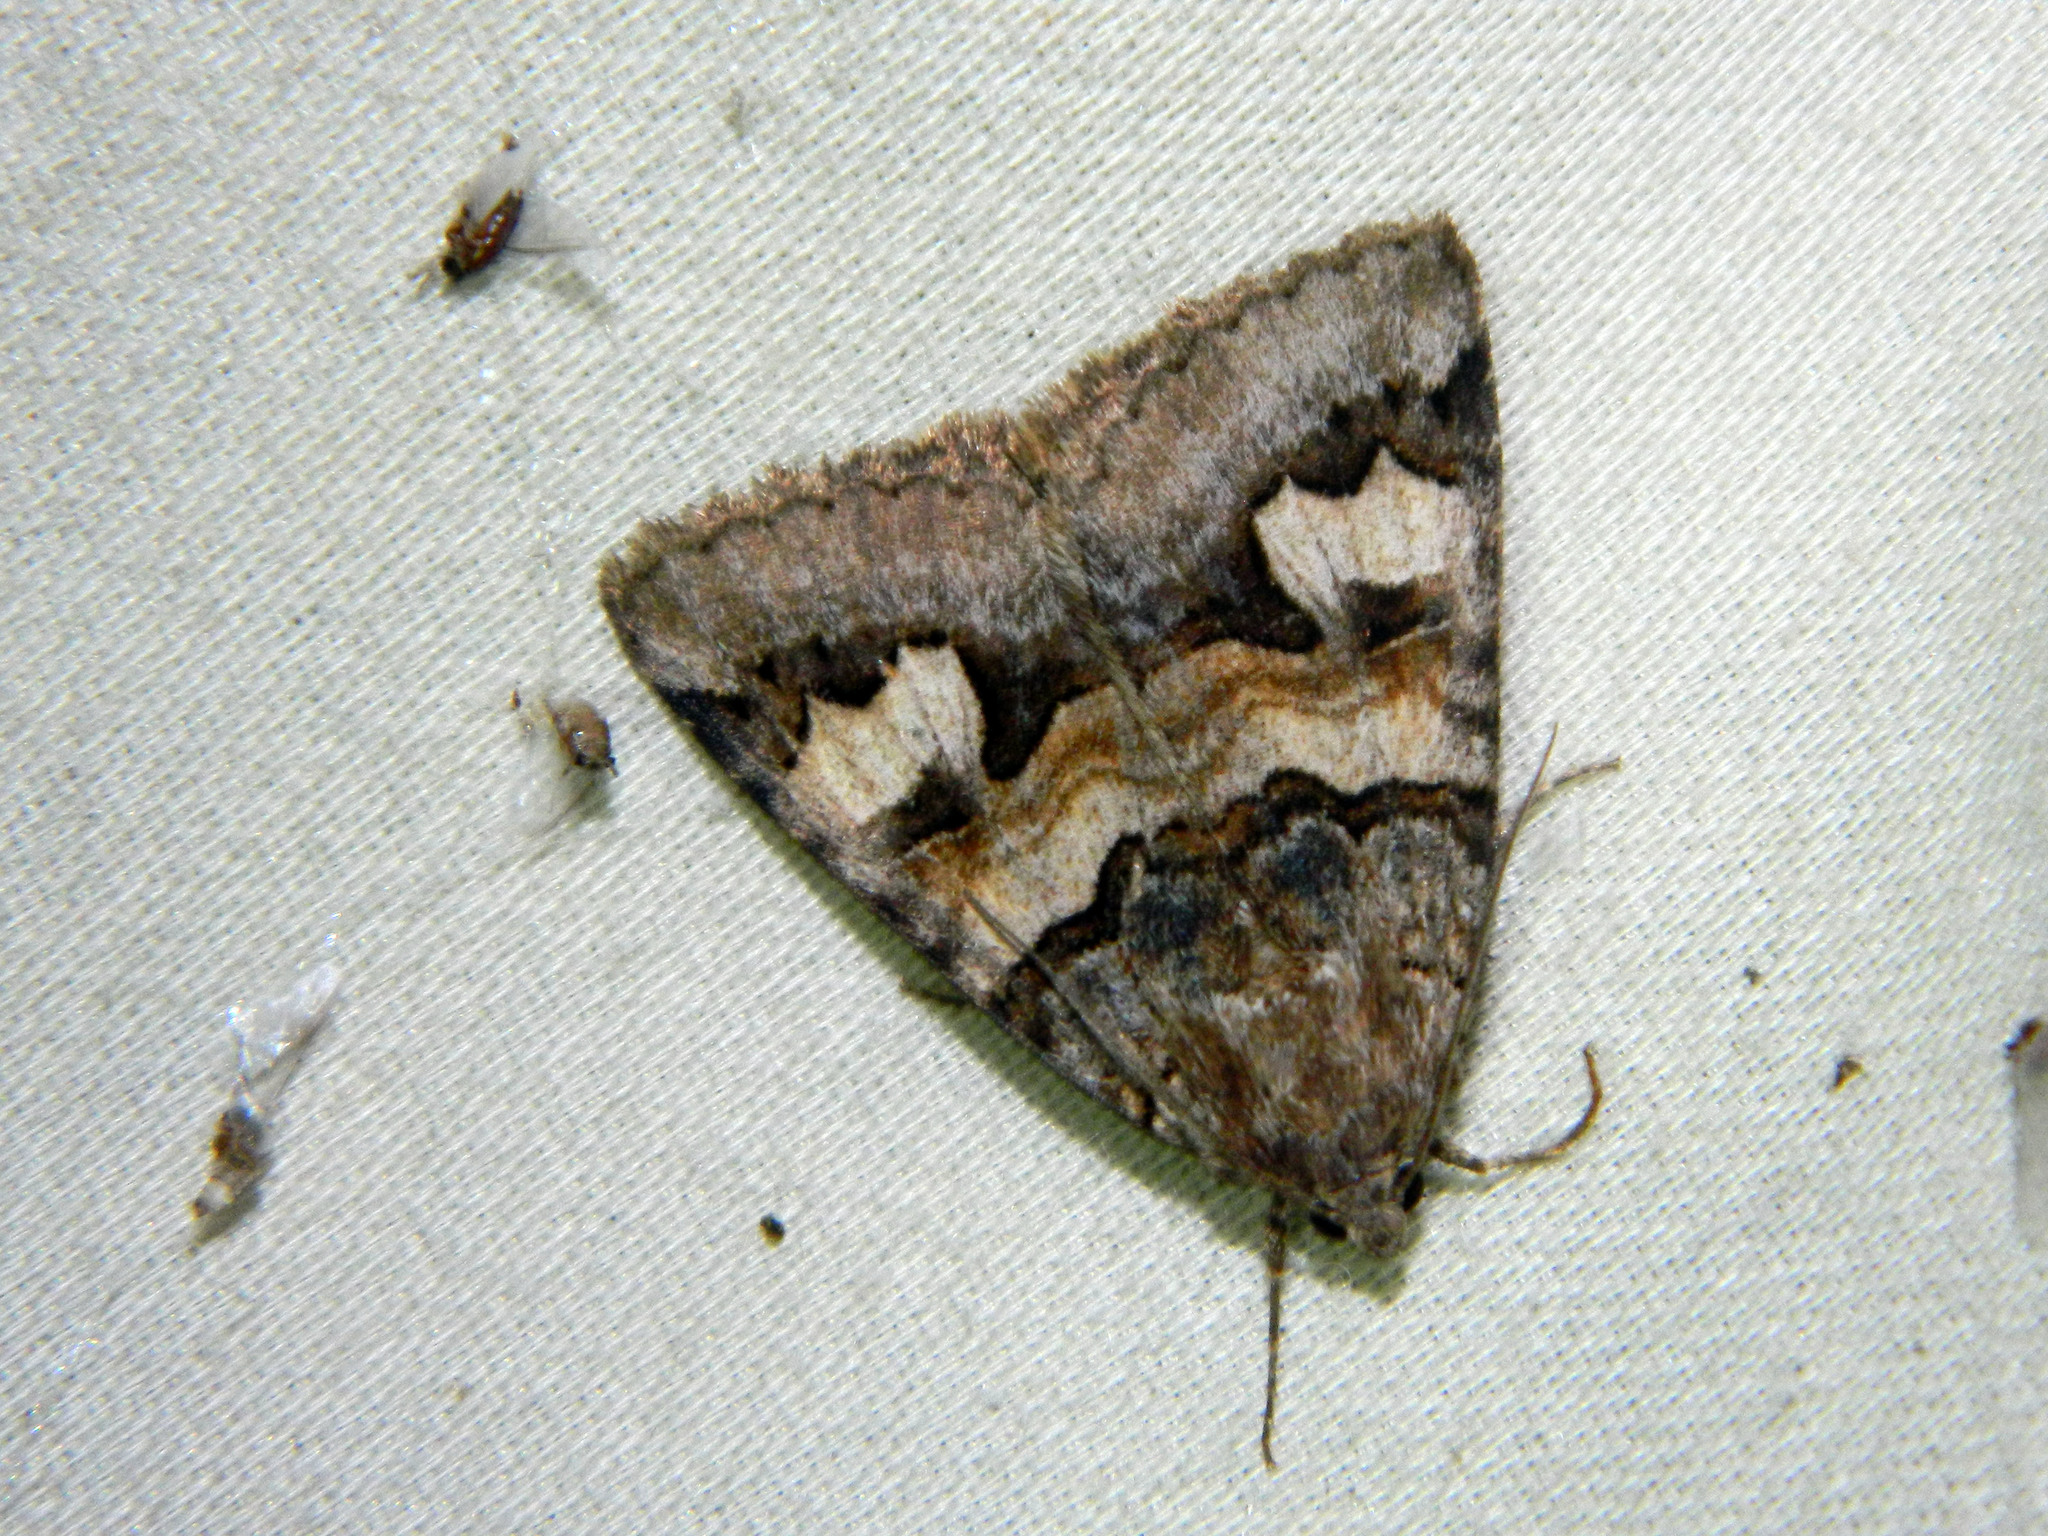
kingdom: Animalia
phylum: Arthropoda
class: Insecta
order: Lepidoptera
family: Erebidae
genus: Drasteria
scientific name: Drasteria adumbrata
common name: Shadowy arches
